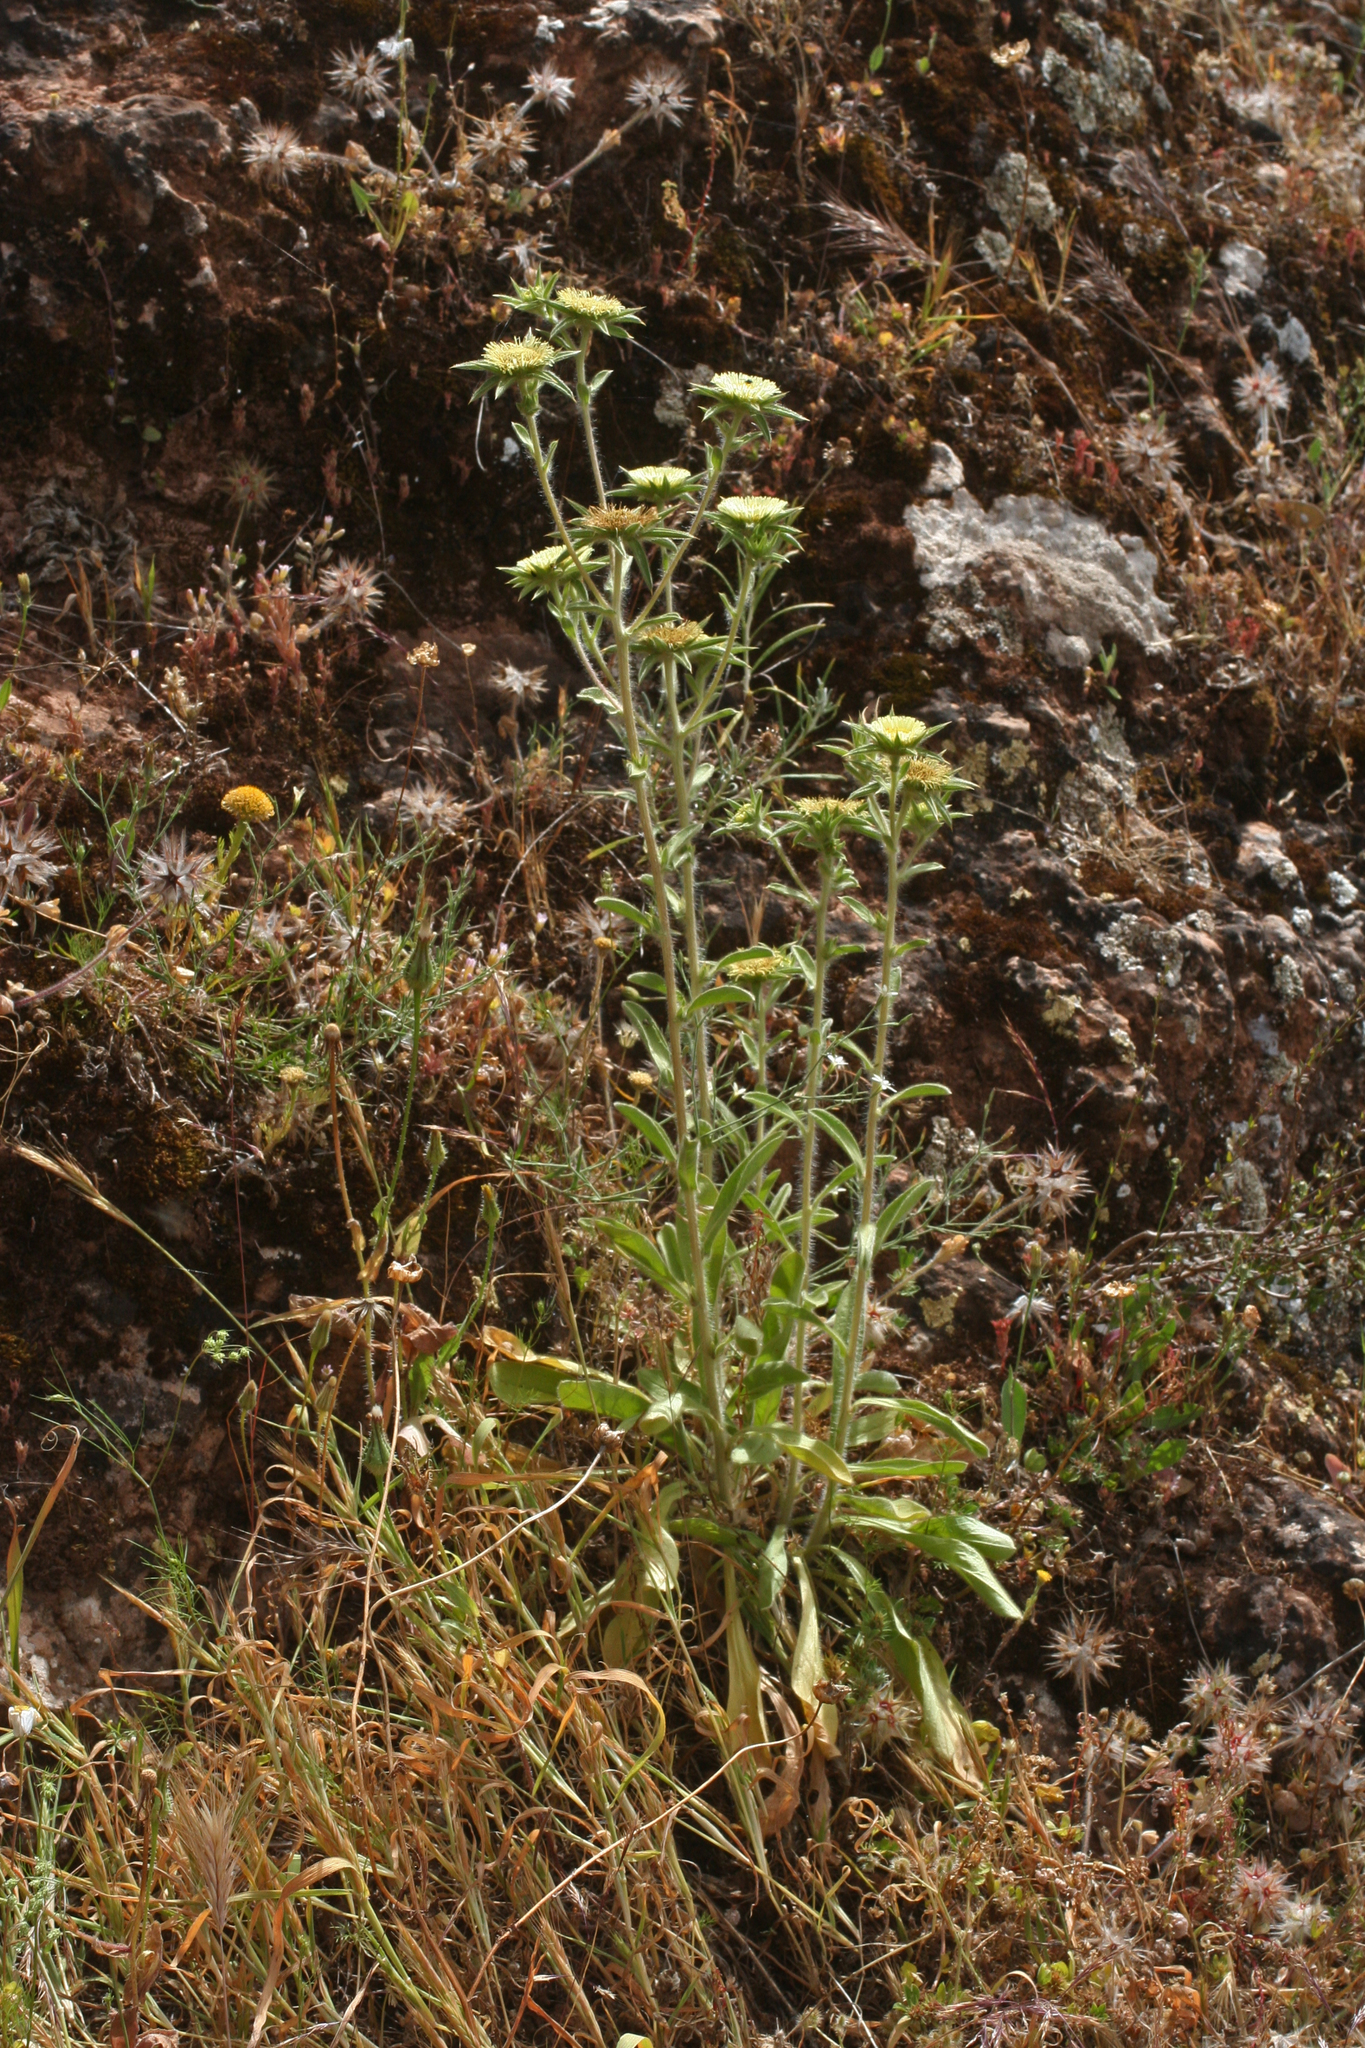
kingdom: Plantae
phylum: Tracheophyta
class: Magnoliopsida
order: Asterales
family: Asteraceae
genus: Pallenis
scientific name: Pallenis spinosa
